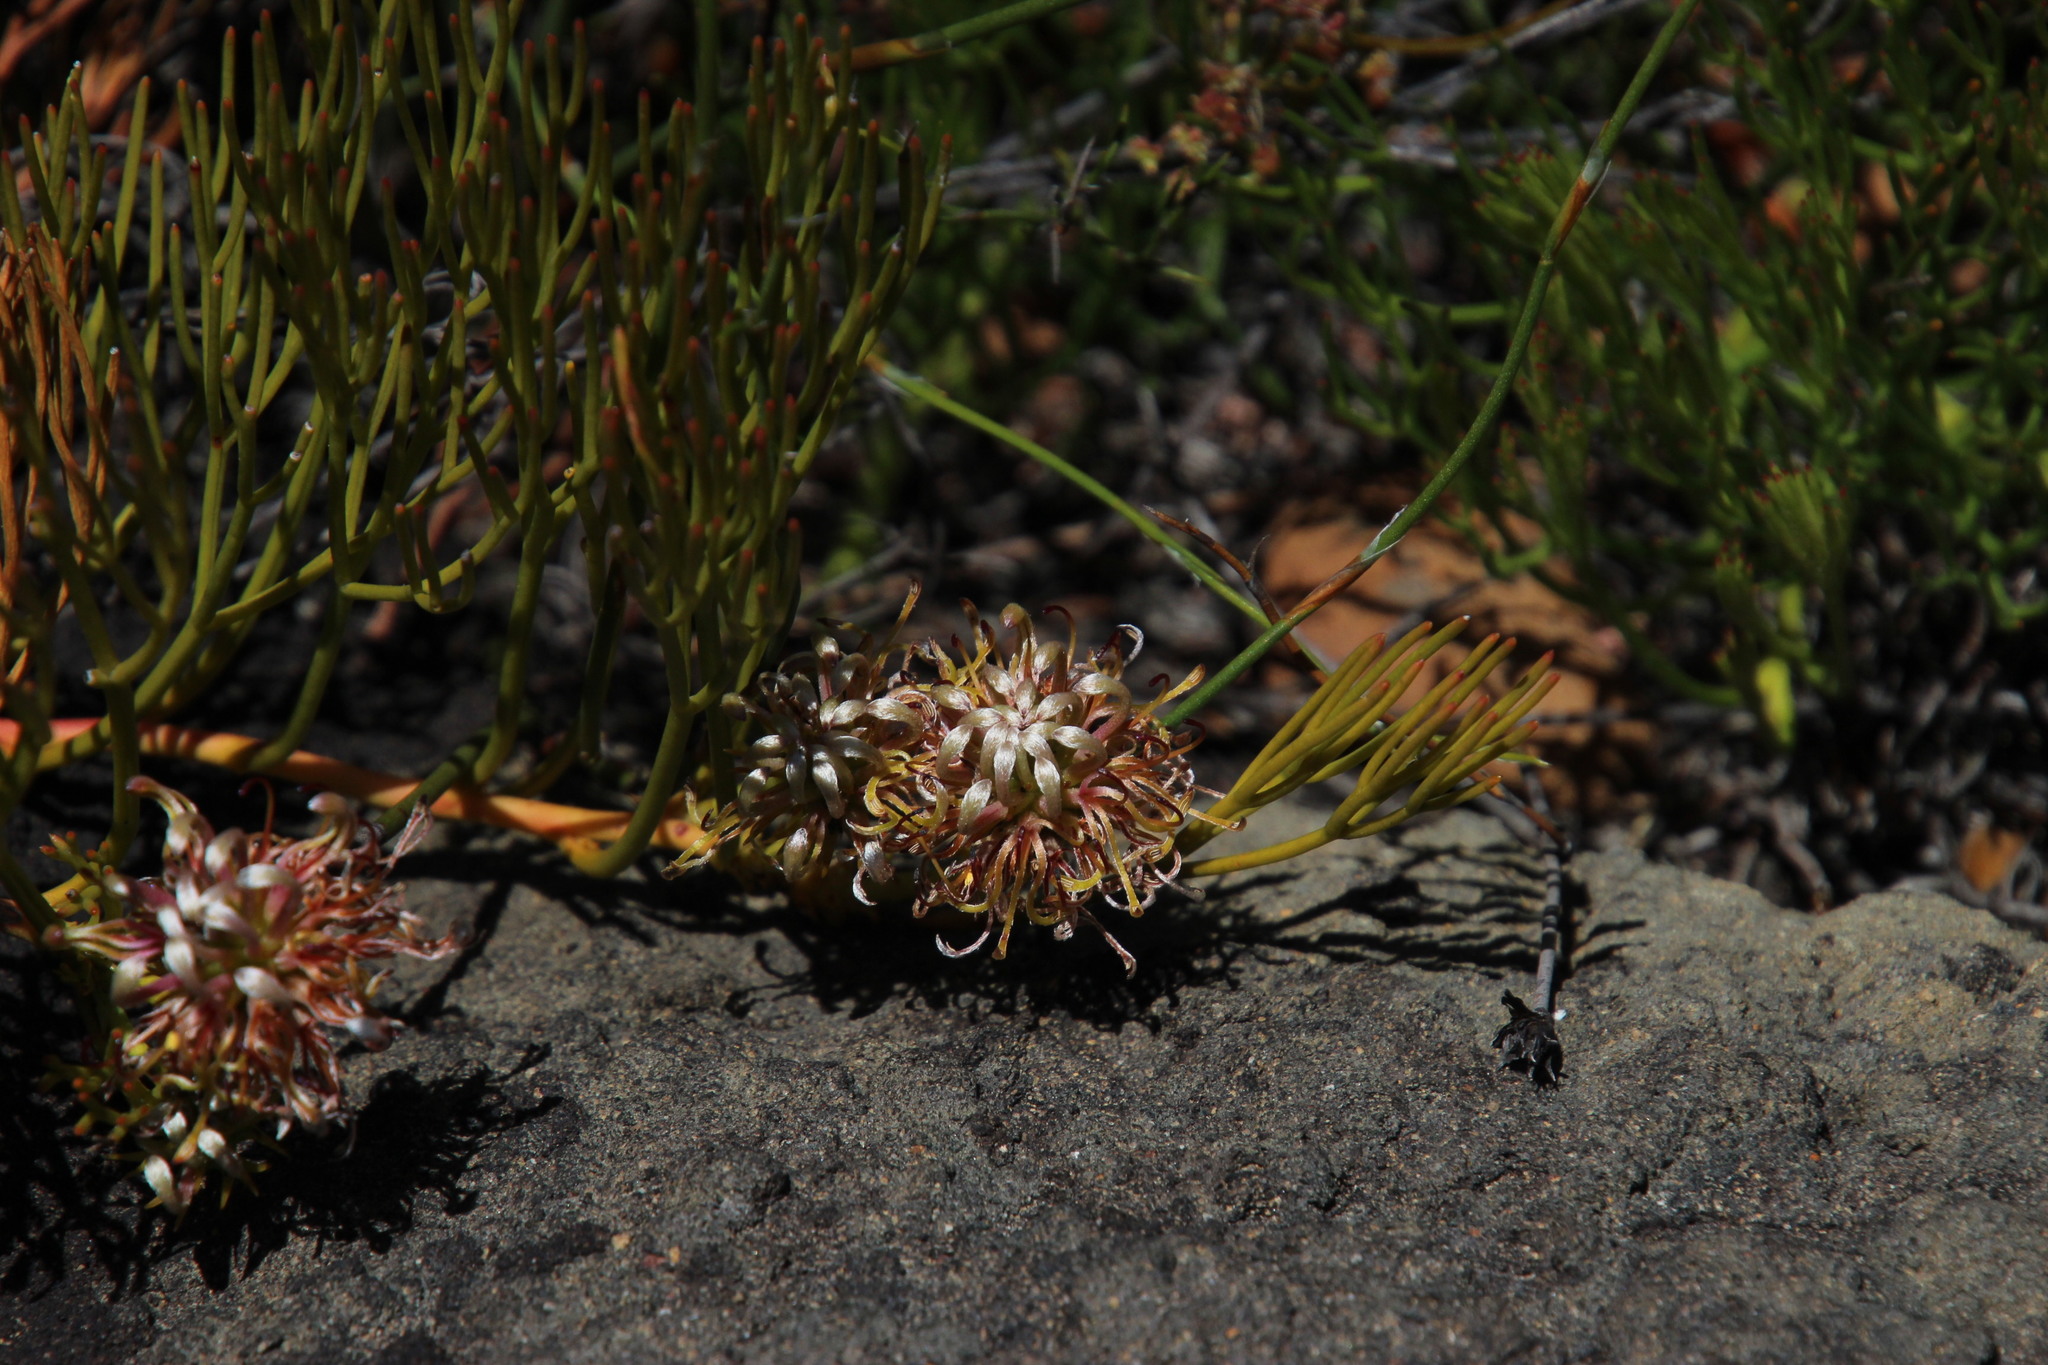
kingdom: Plantae
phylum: Tracheophyta
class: Magnoliopsida
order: Proteales
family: Proteaceae
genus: Serruria
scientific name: Serruria cygnea
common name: Swan spiderhead
